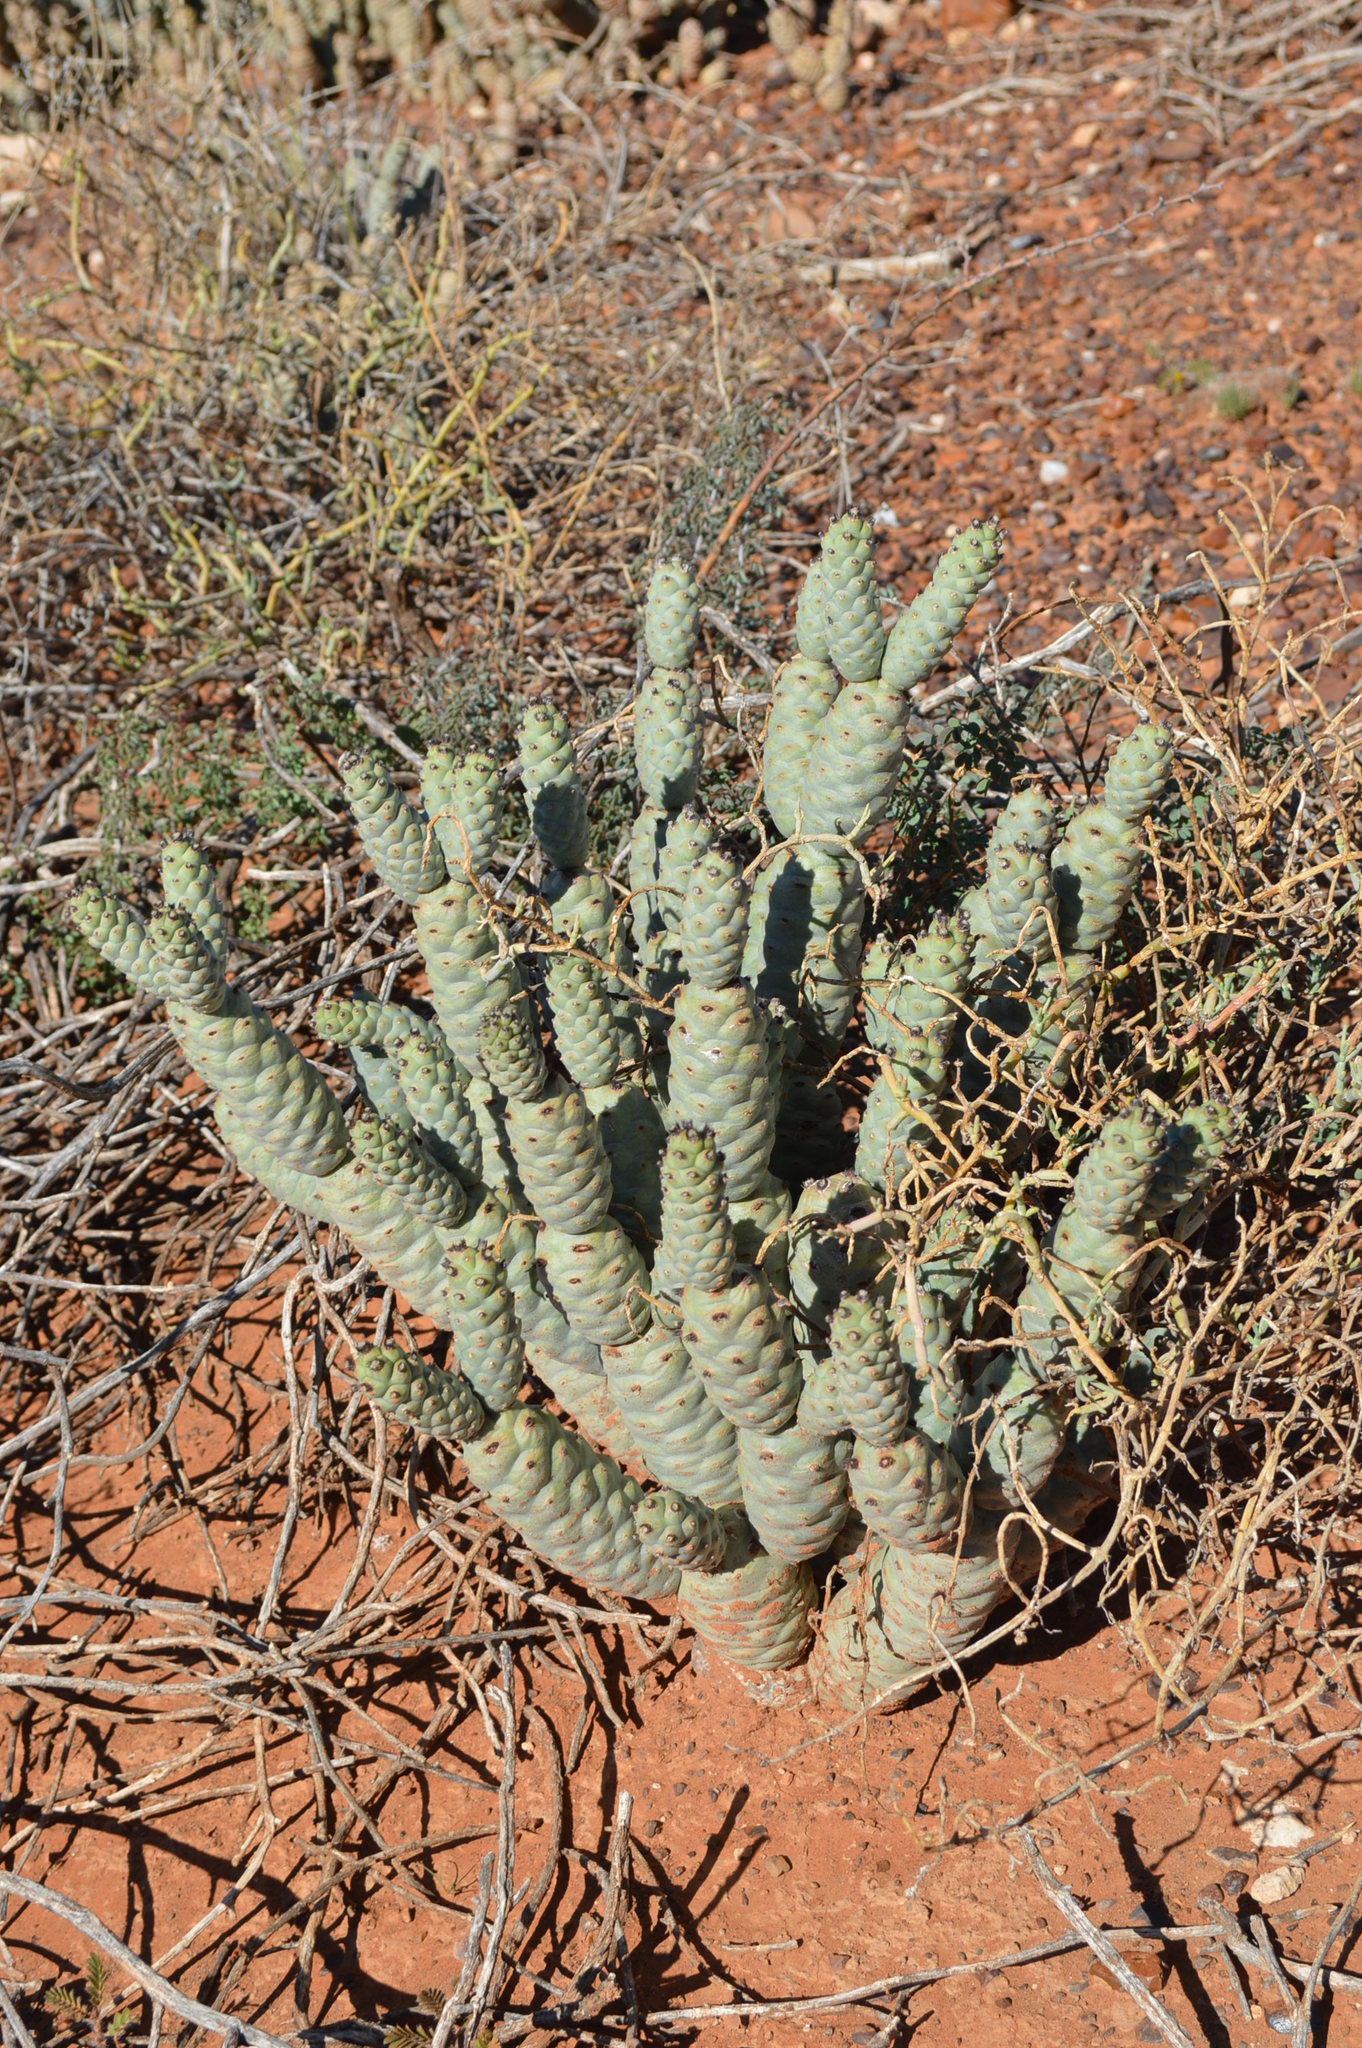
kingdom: Plantae
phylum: Tracheophyta
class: Magnoliopsida
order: Caryophyllales
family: Cactaceae
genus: Tephrocactus
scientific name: Tephrocactus articulatus
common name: Paper cactus
